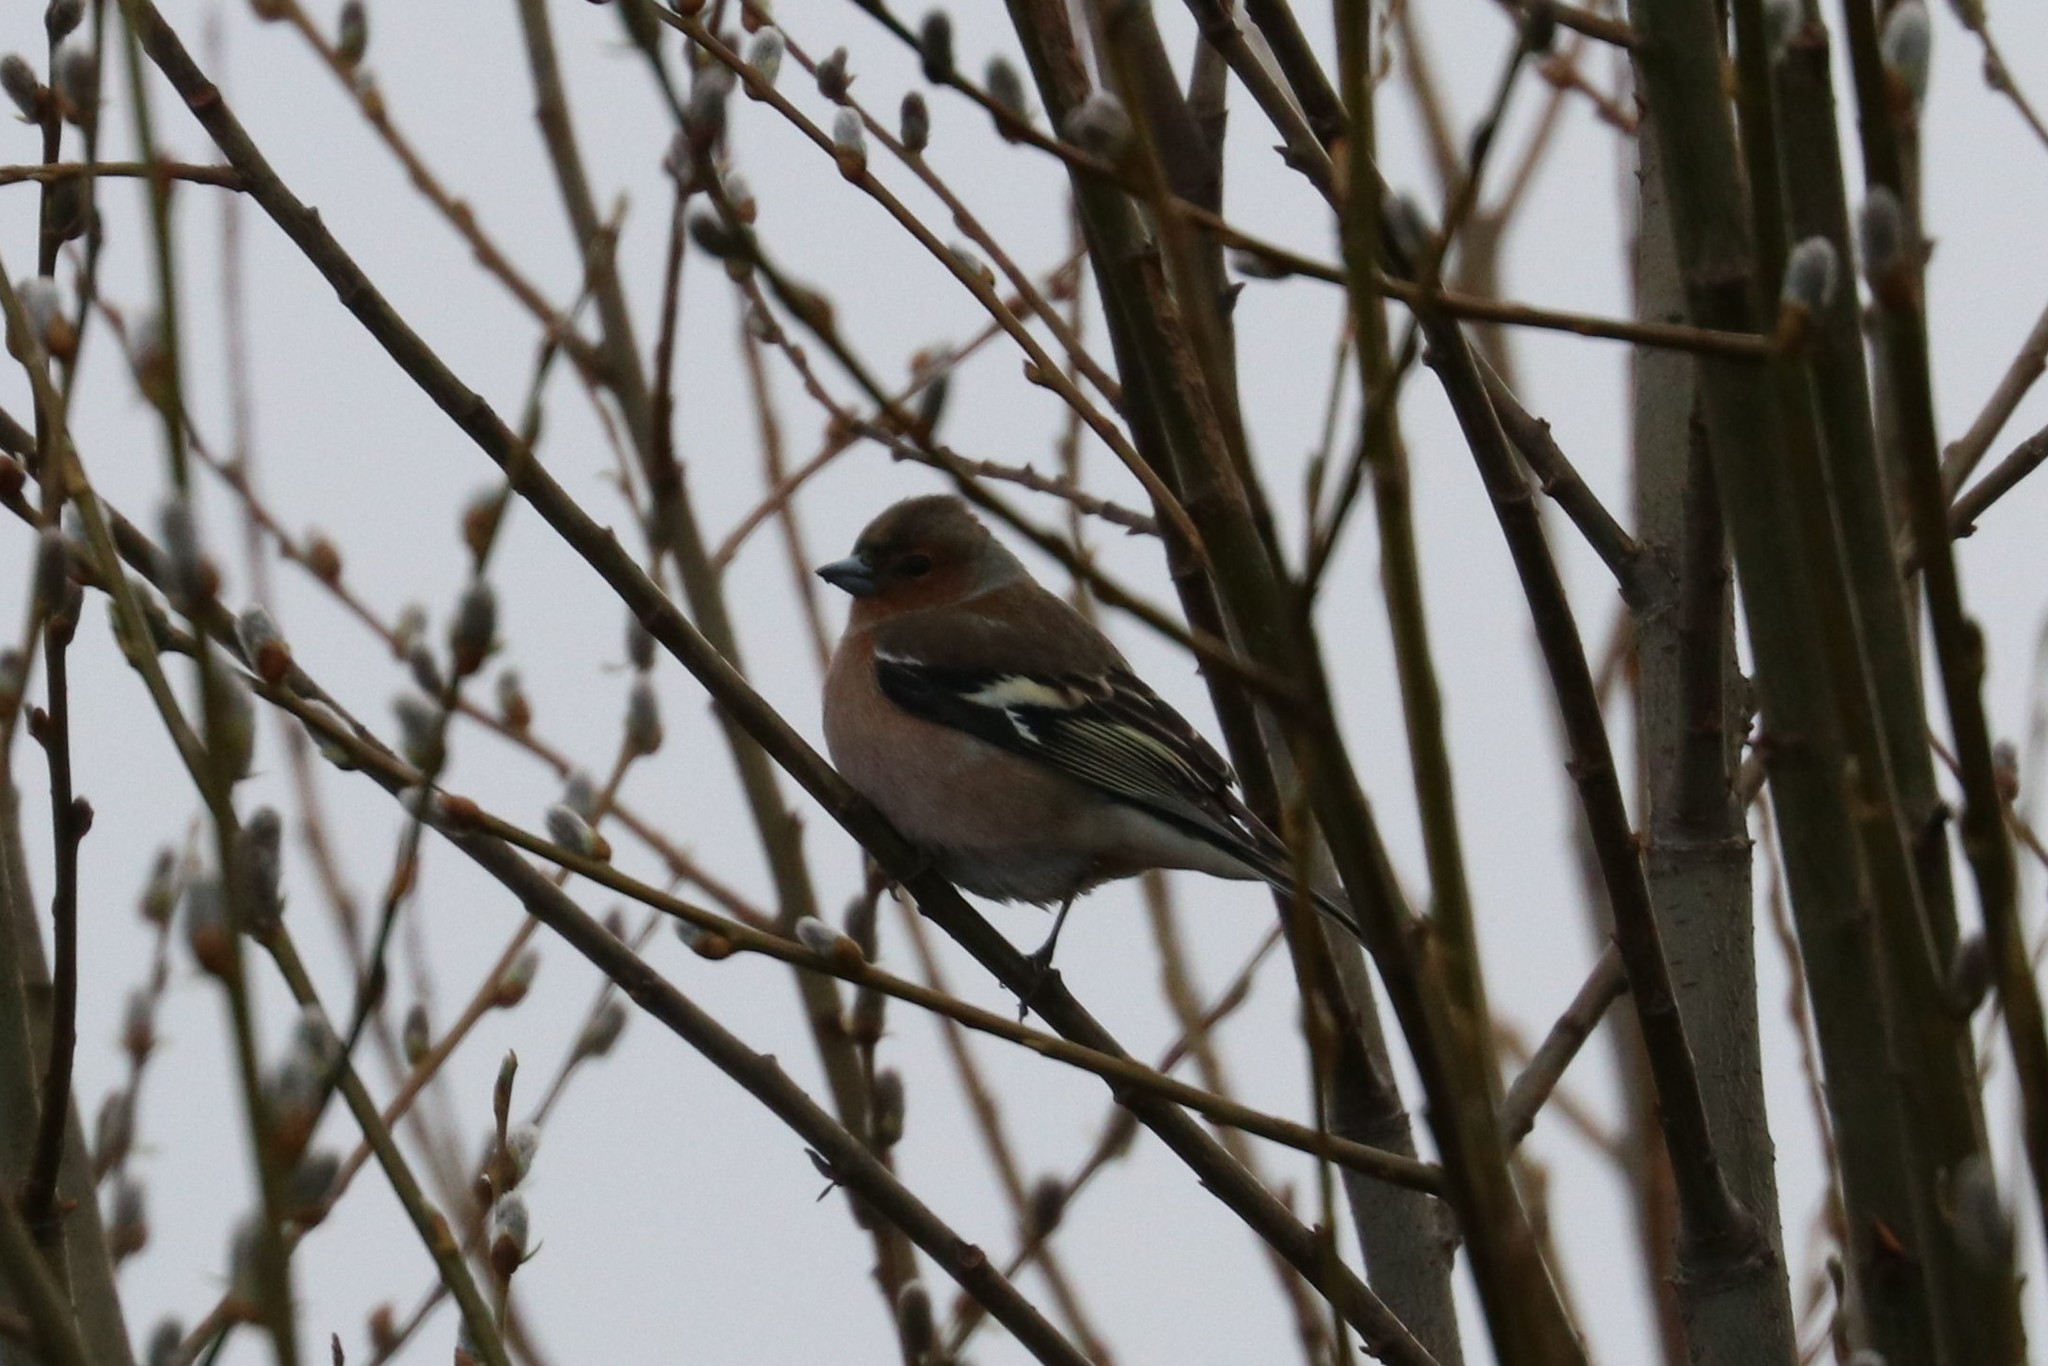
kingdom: Animalia
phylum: Chordata
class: Aves
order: Passeriformes
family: Fringillidae
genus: Fringilla
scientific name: Fringilla coelebs
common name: Common chaffinch
